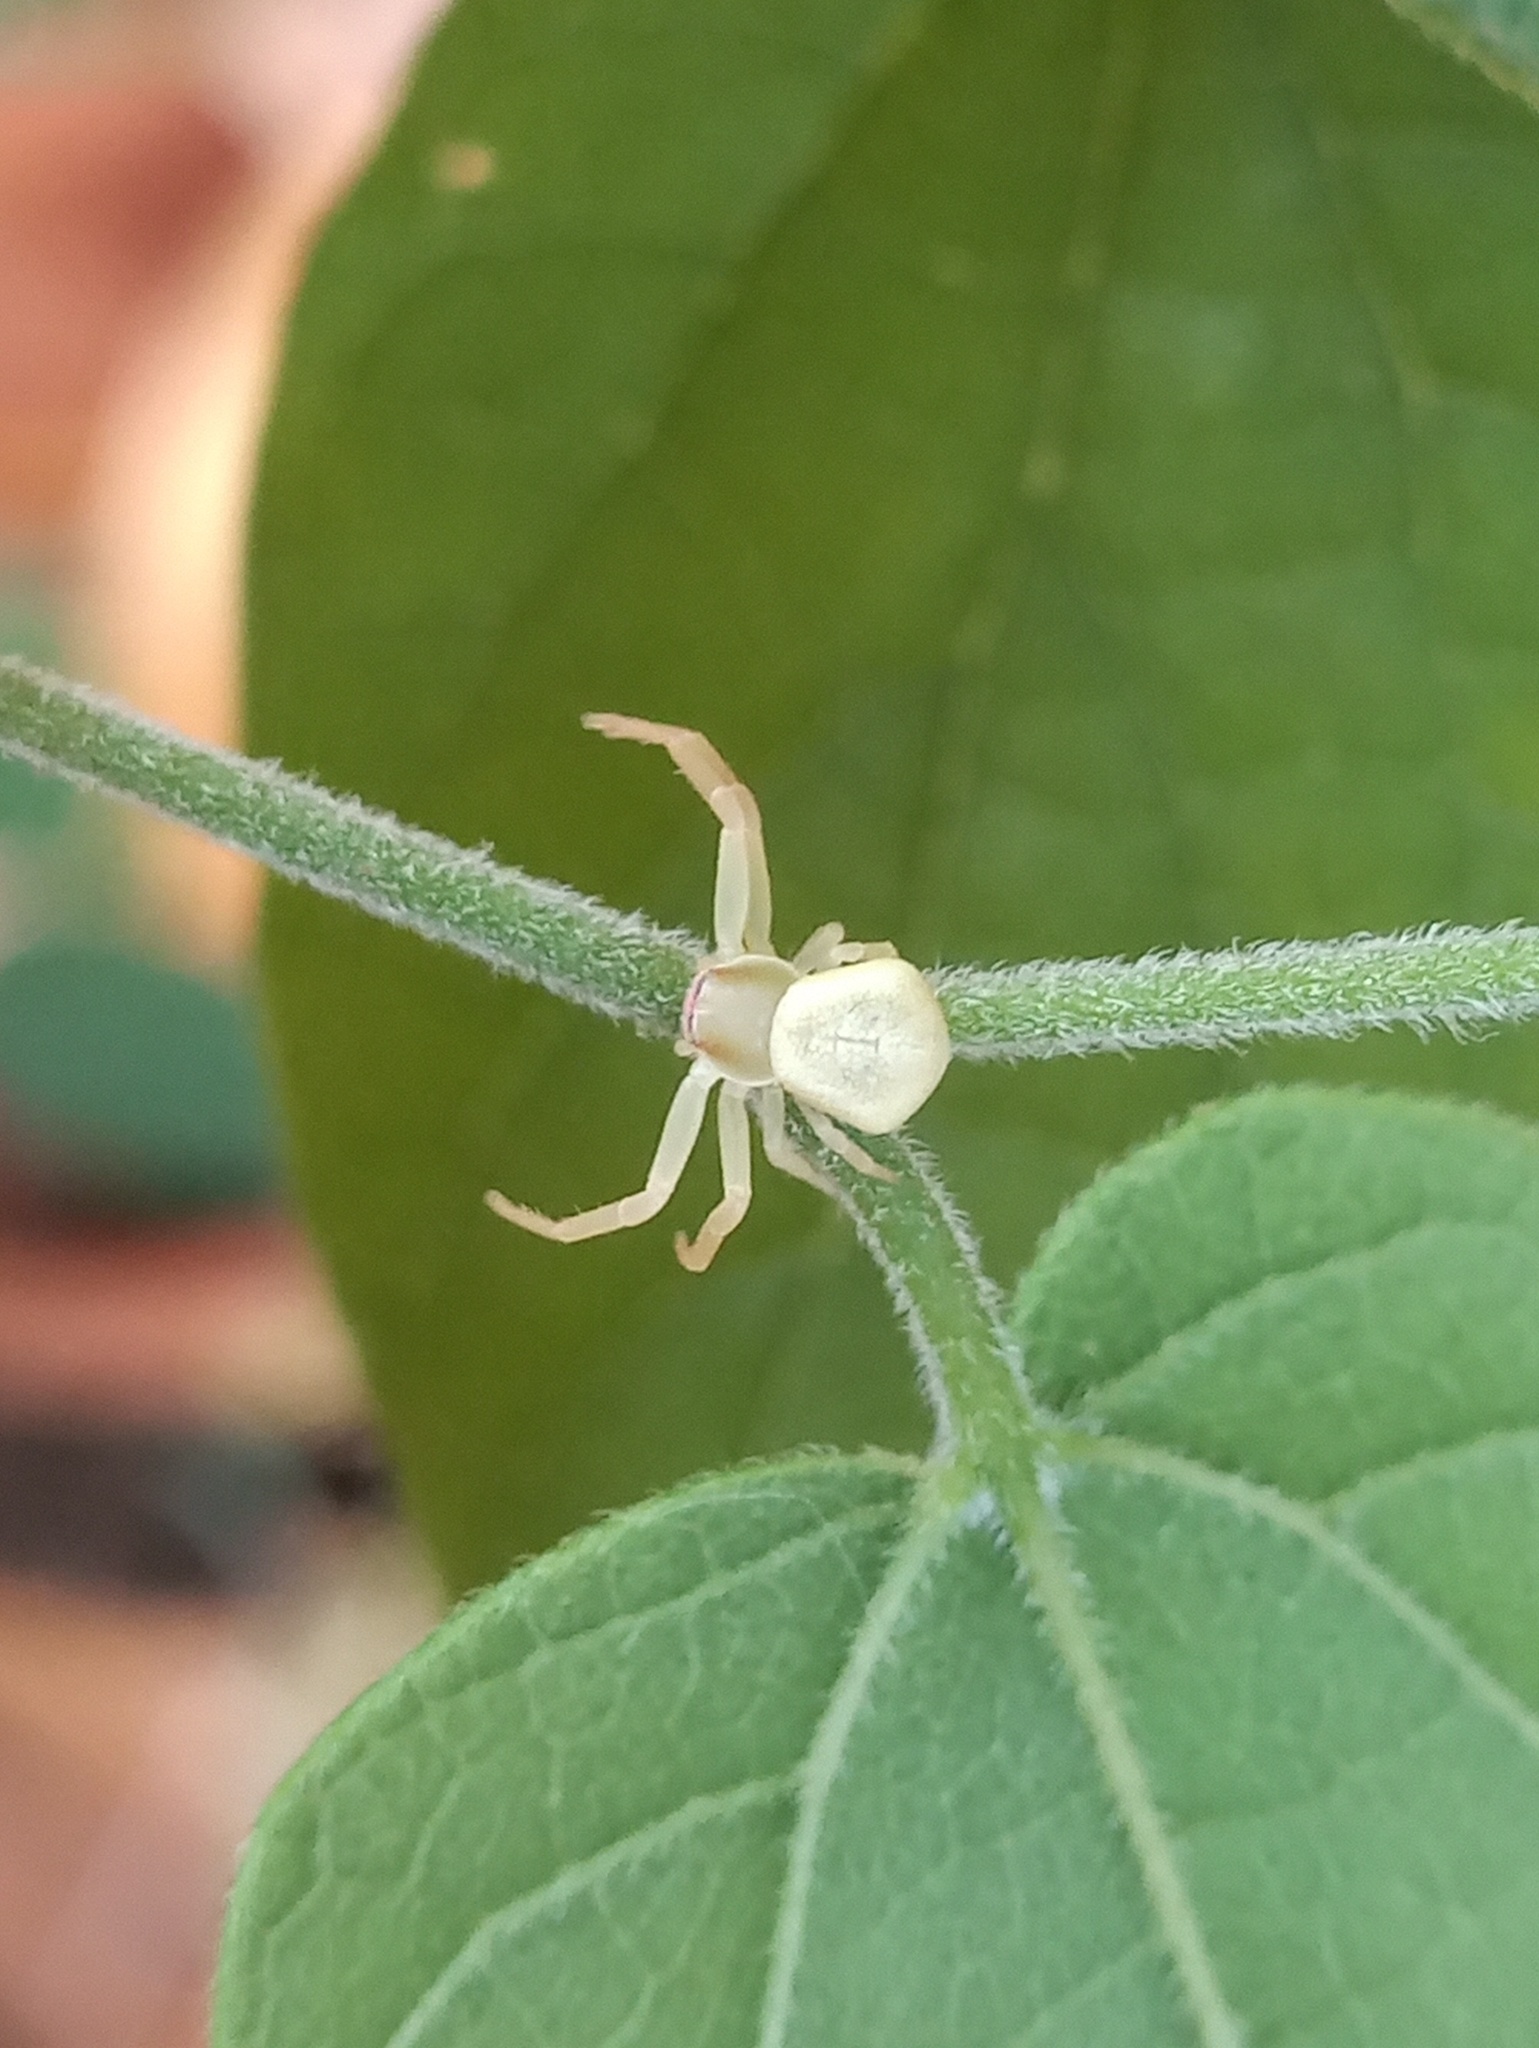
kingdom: Animalia
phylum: Arthropoda
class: Arachnida
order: Araneae
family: Thomisidae
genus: Misumenoides
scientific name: Misumenoides formosipes
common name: White-banded crab spider
